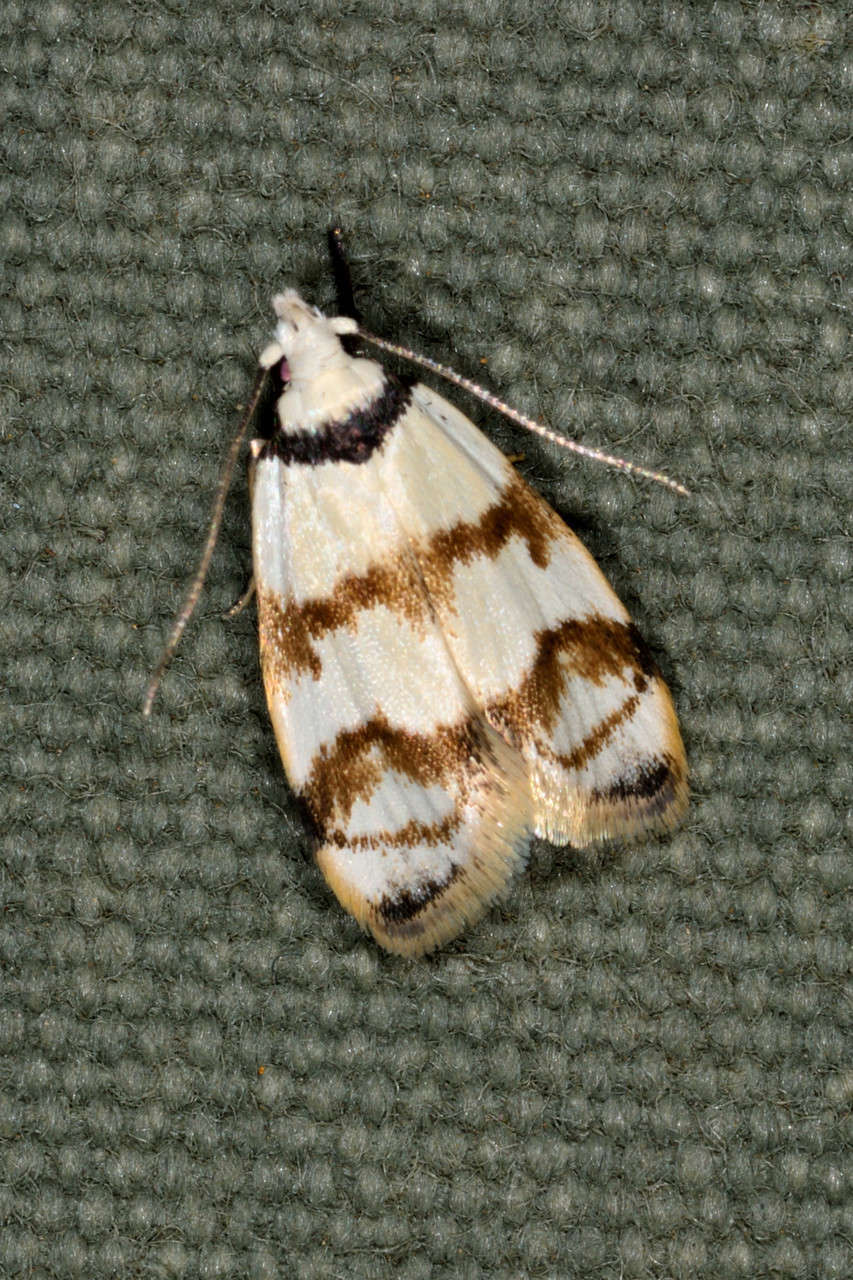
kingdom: Animalia
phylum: Arthropoda
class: Insecta
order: Lepidoptera
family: Oecophoridae
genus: Chezala
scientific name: Chezala brachypepla
